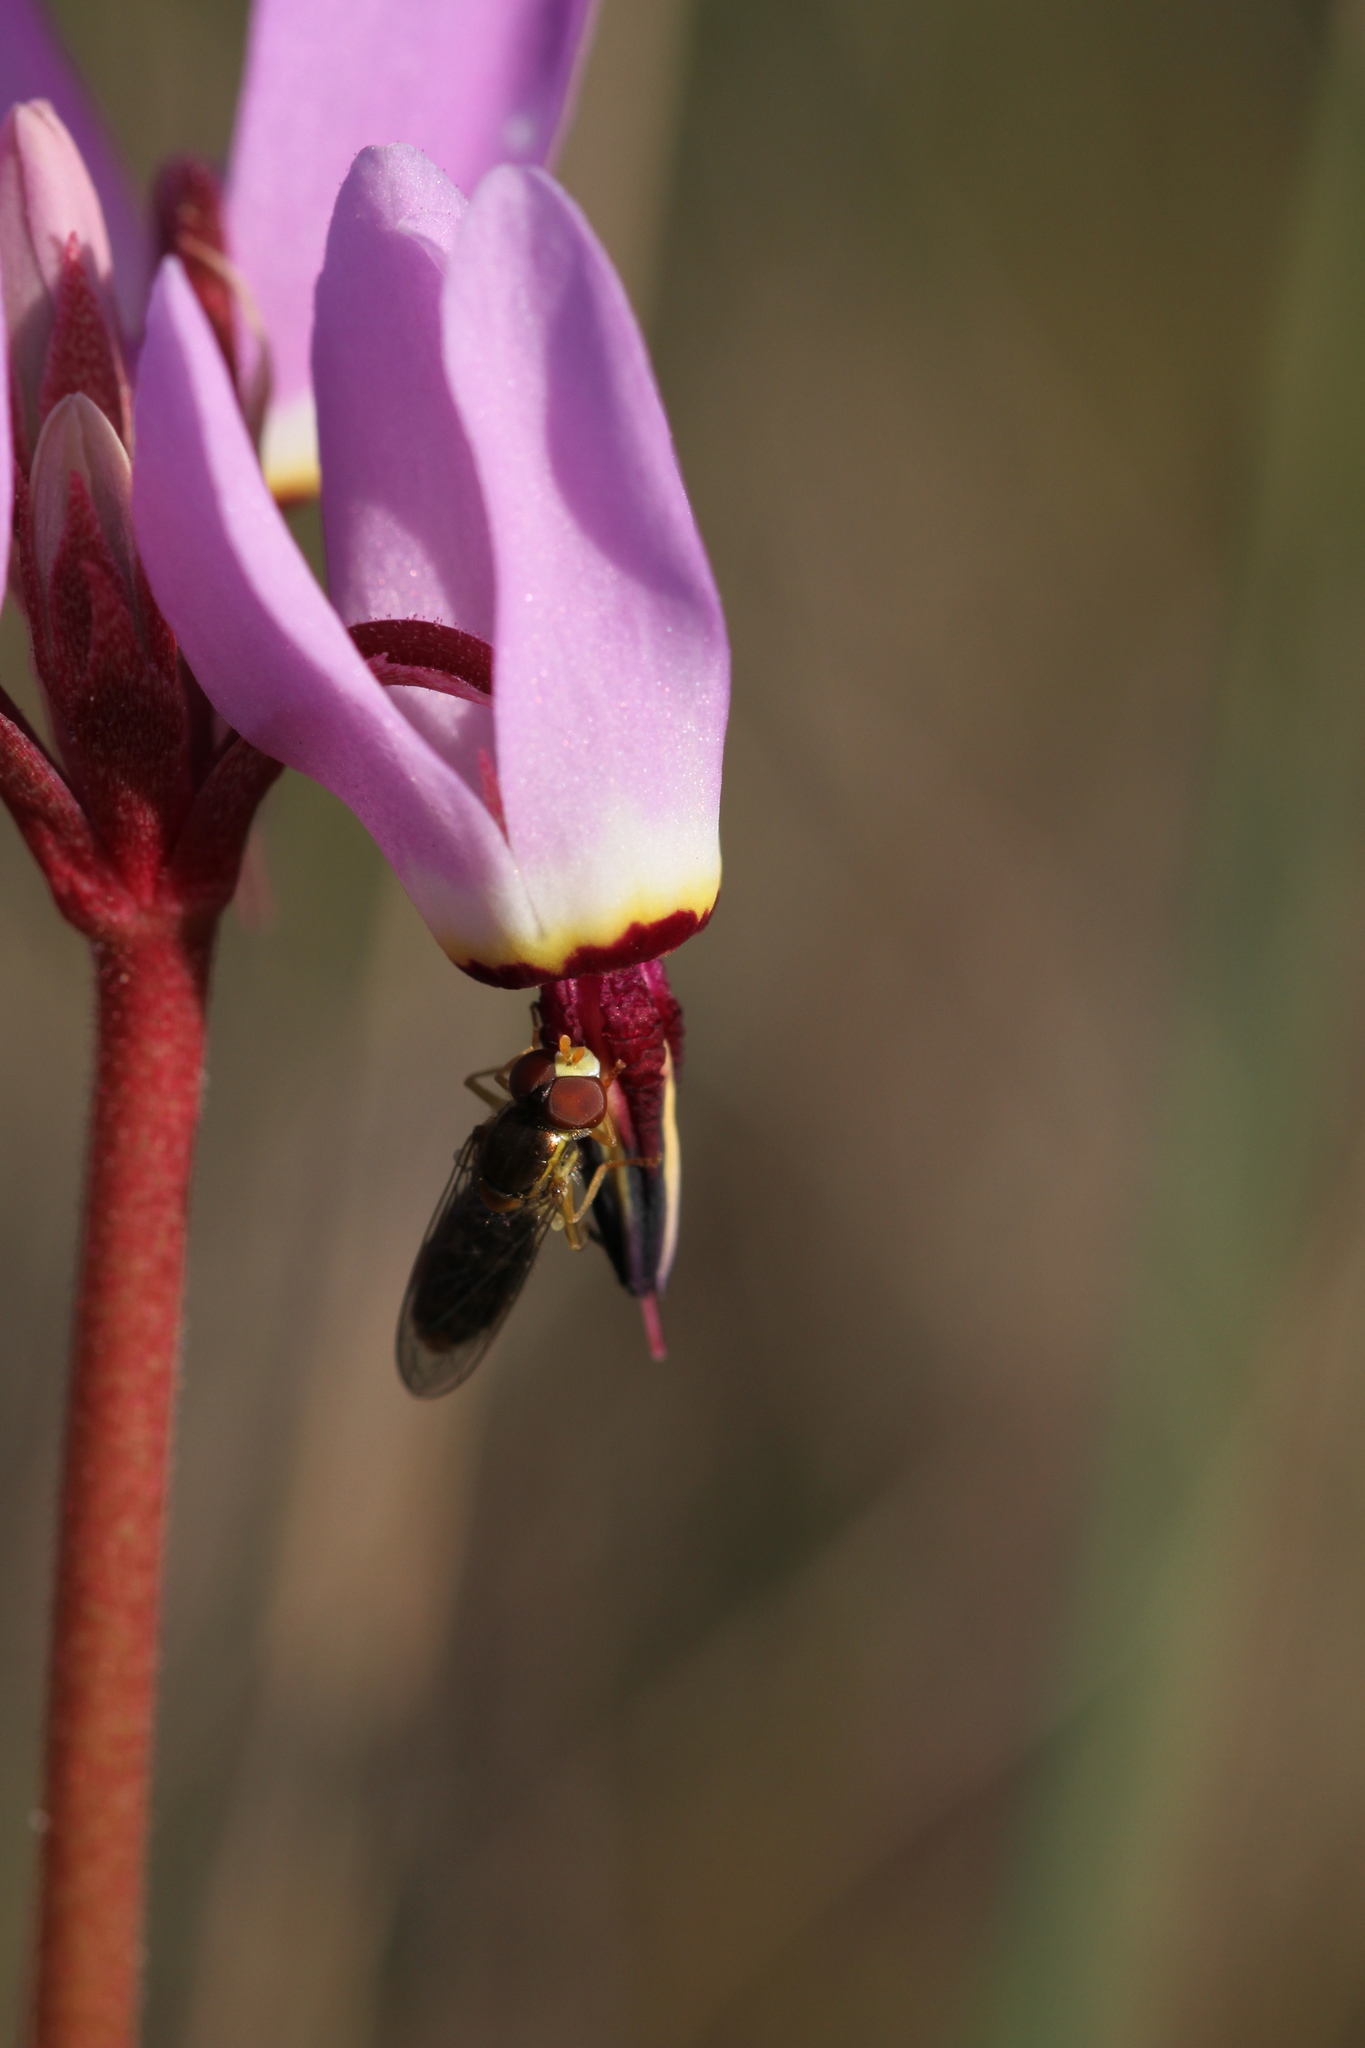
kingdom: Plantae
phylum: Tracheophyta
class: Magnoliopsida
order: Ericales
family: Primulaceae
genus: Dodecatheon
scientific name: Dodecatheon hendersonii
